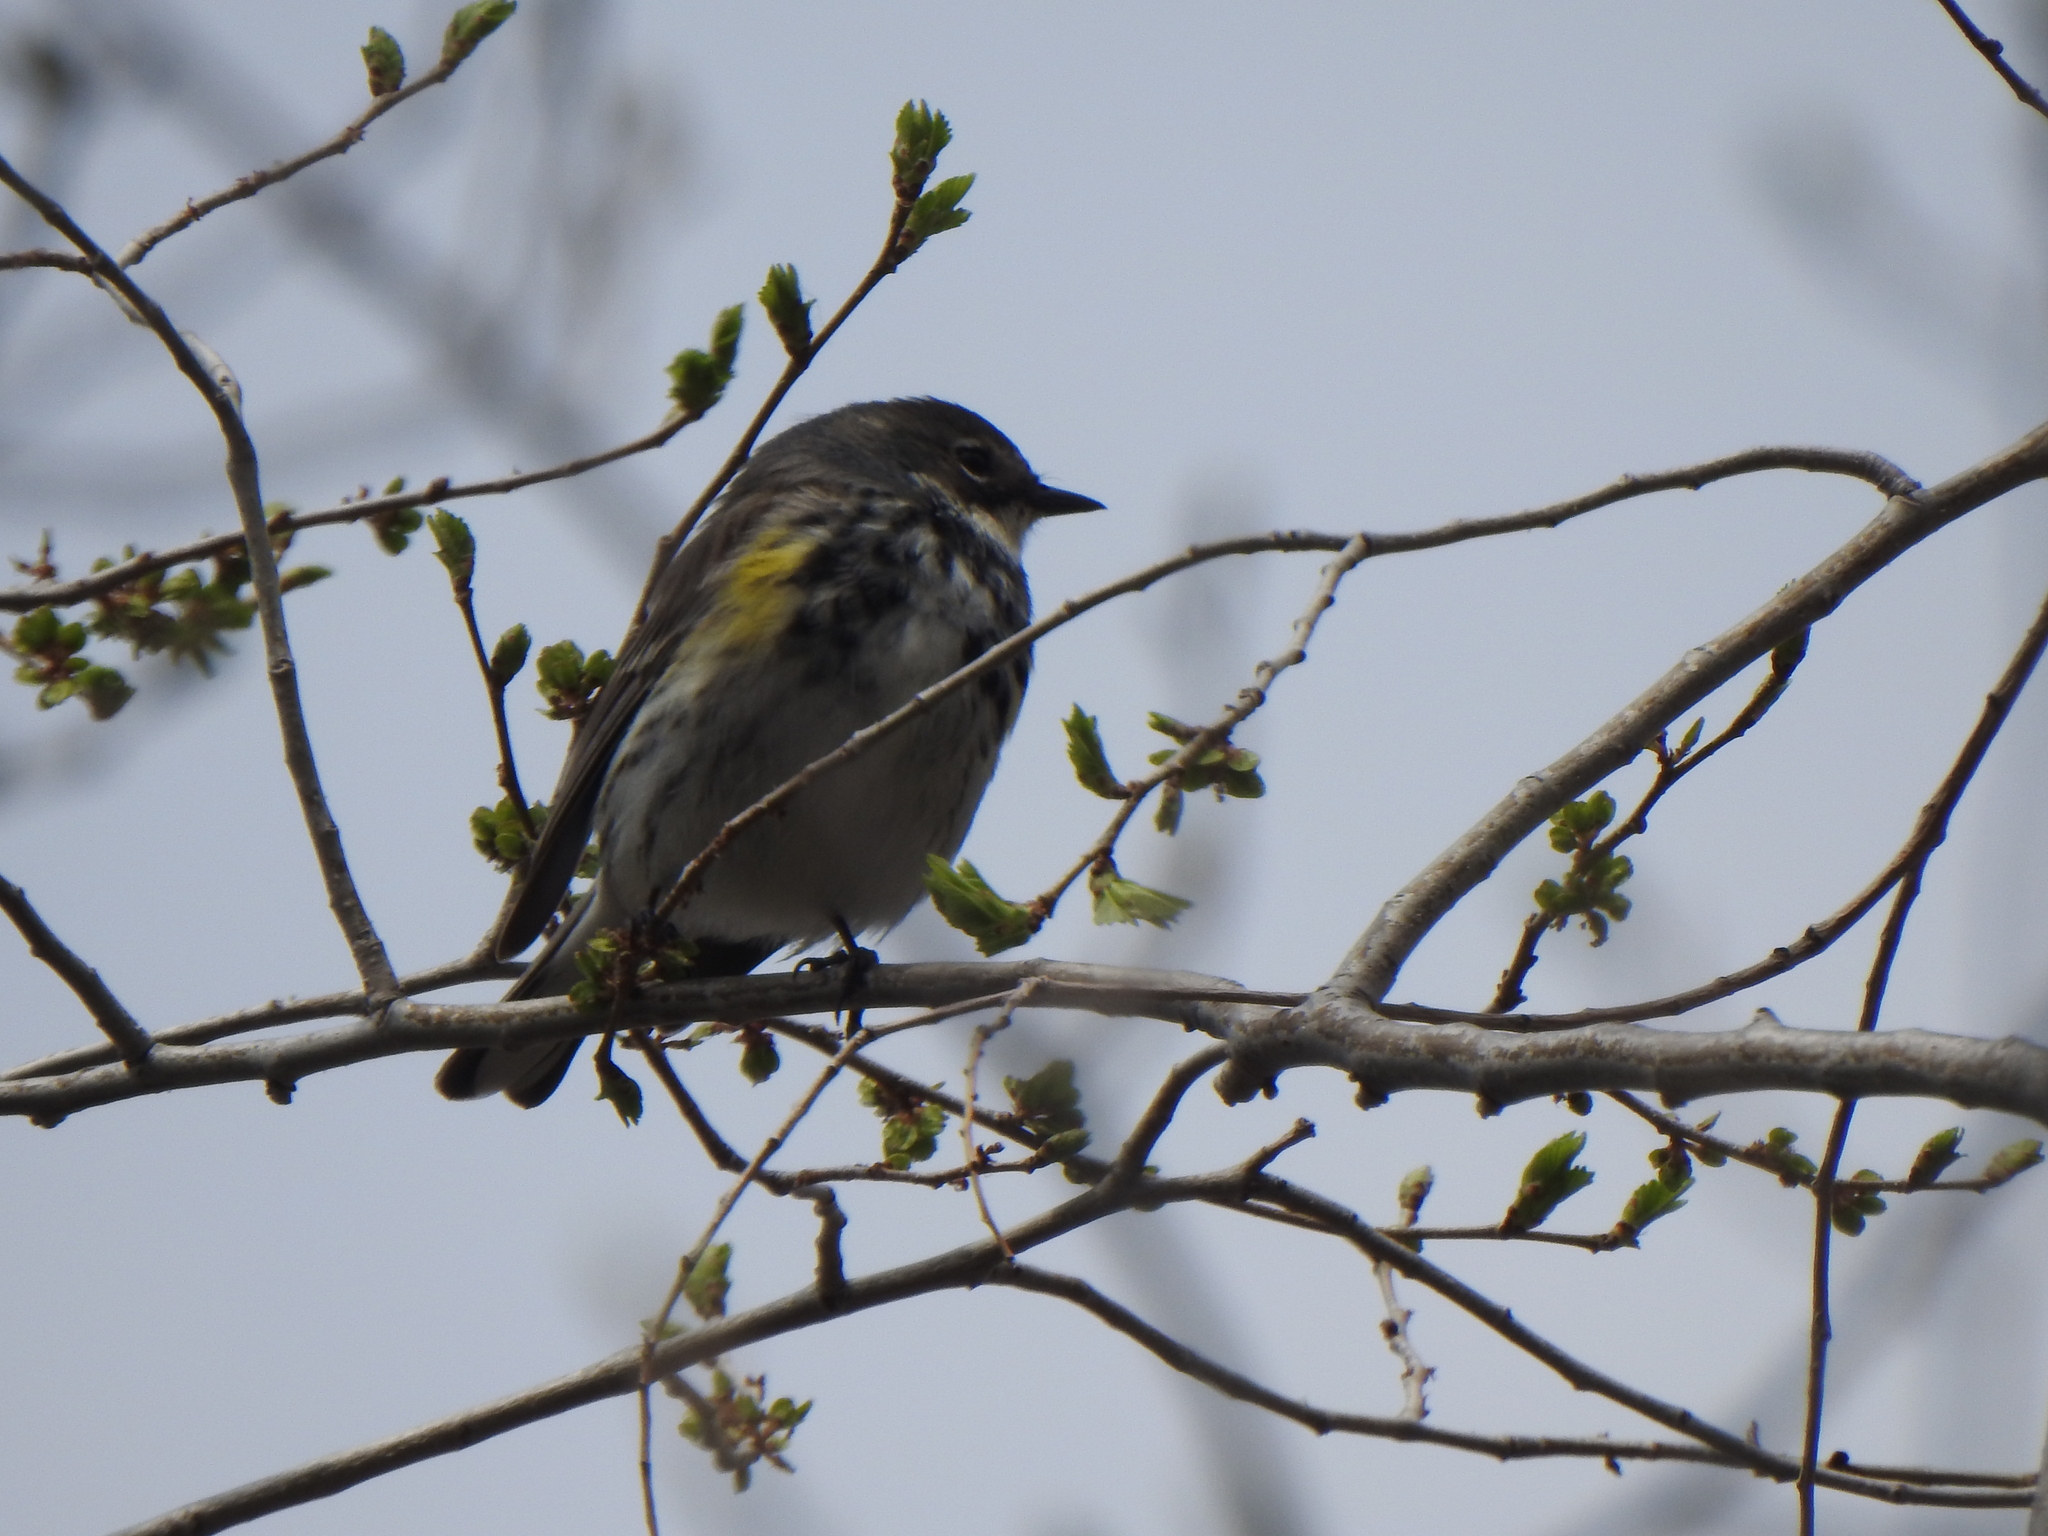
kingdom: Animalia
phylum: Chordata
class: Aves
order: Passeriformes
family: Parulidae
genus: Setophaga
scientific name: Setophaga coronata
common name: Myrtle warbler
